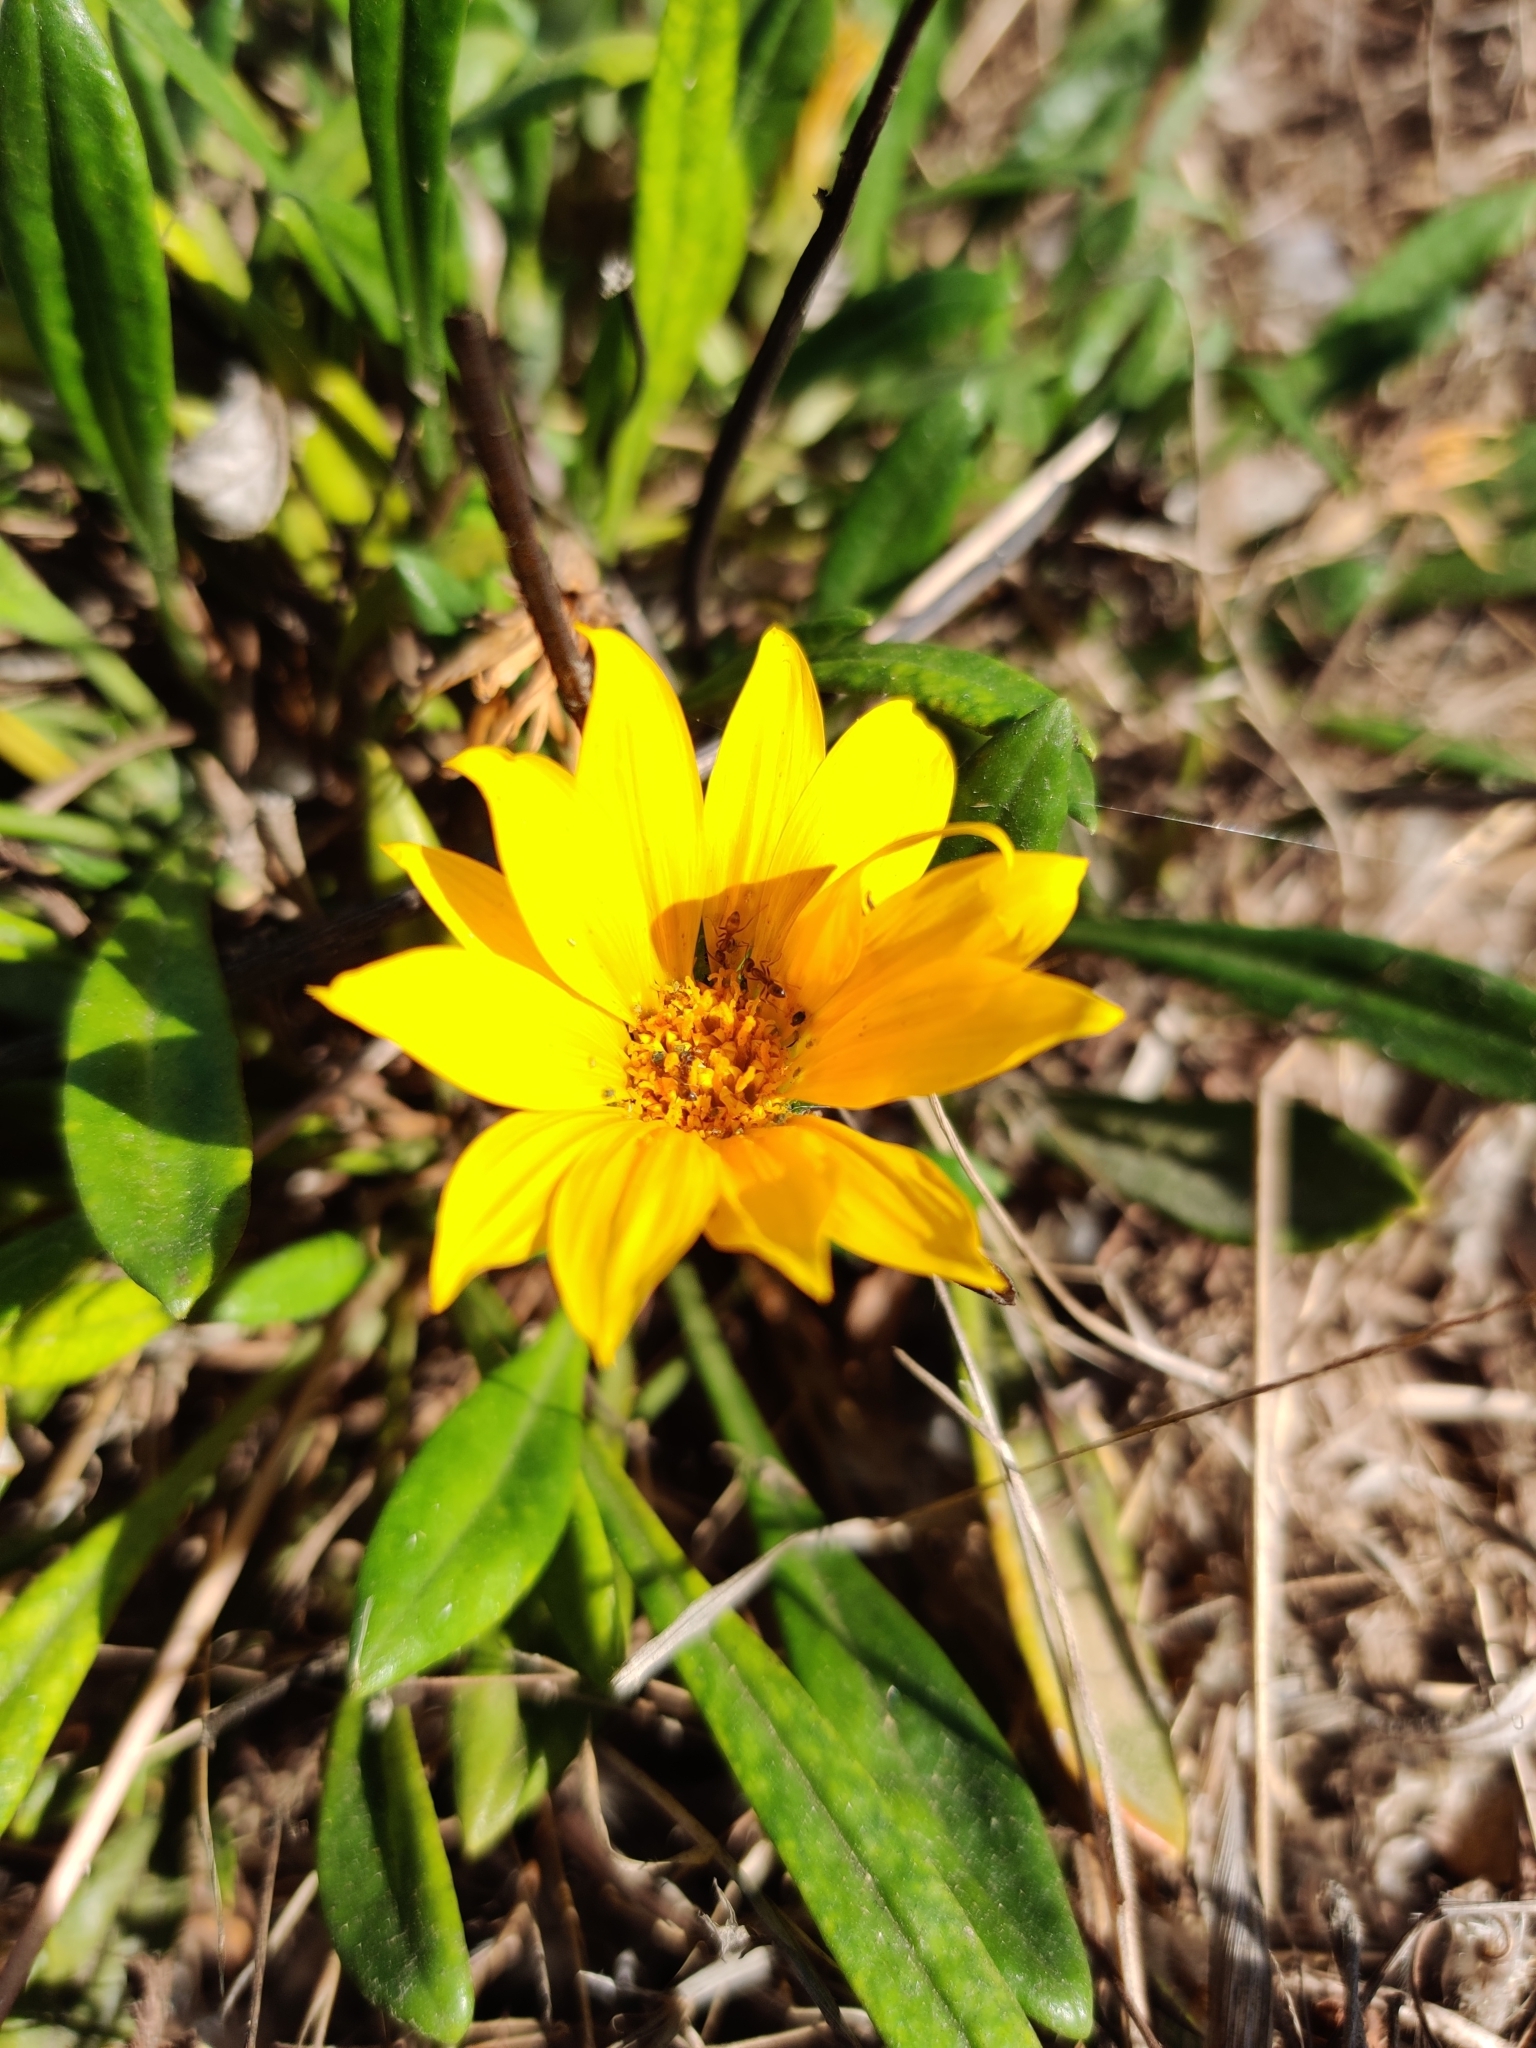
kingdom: Plantae
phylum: Tracheophyta
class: Magnoliopsida
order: Asterales
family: Asteraceae
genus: Gazania
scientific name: Gazania splendens
